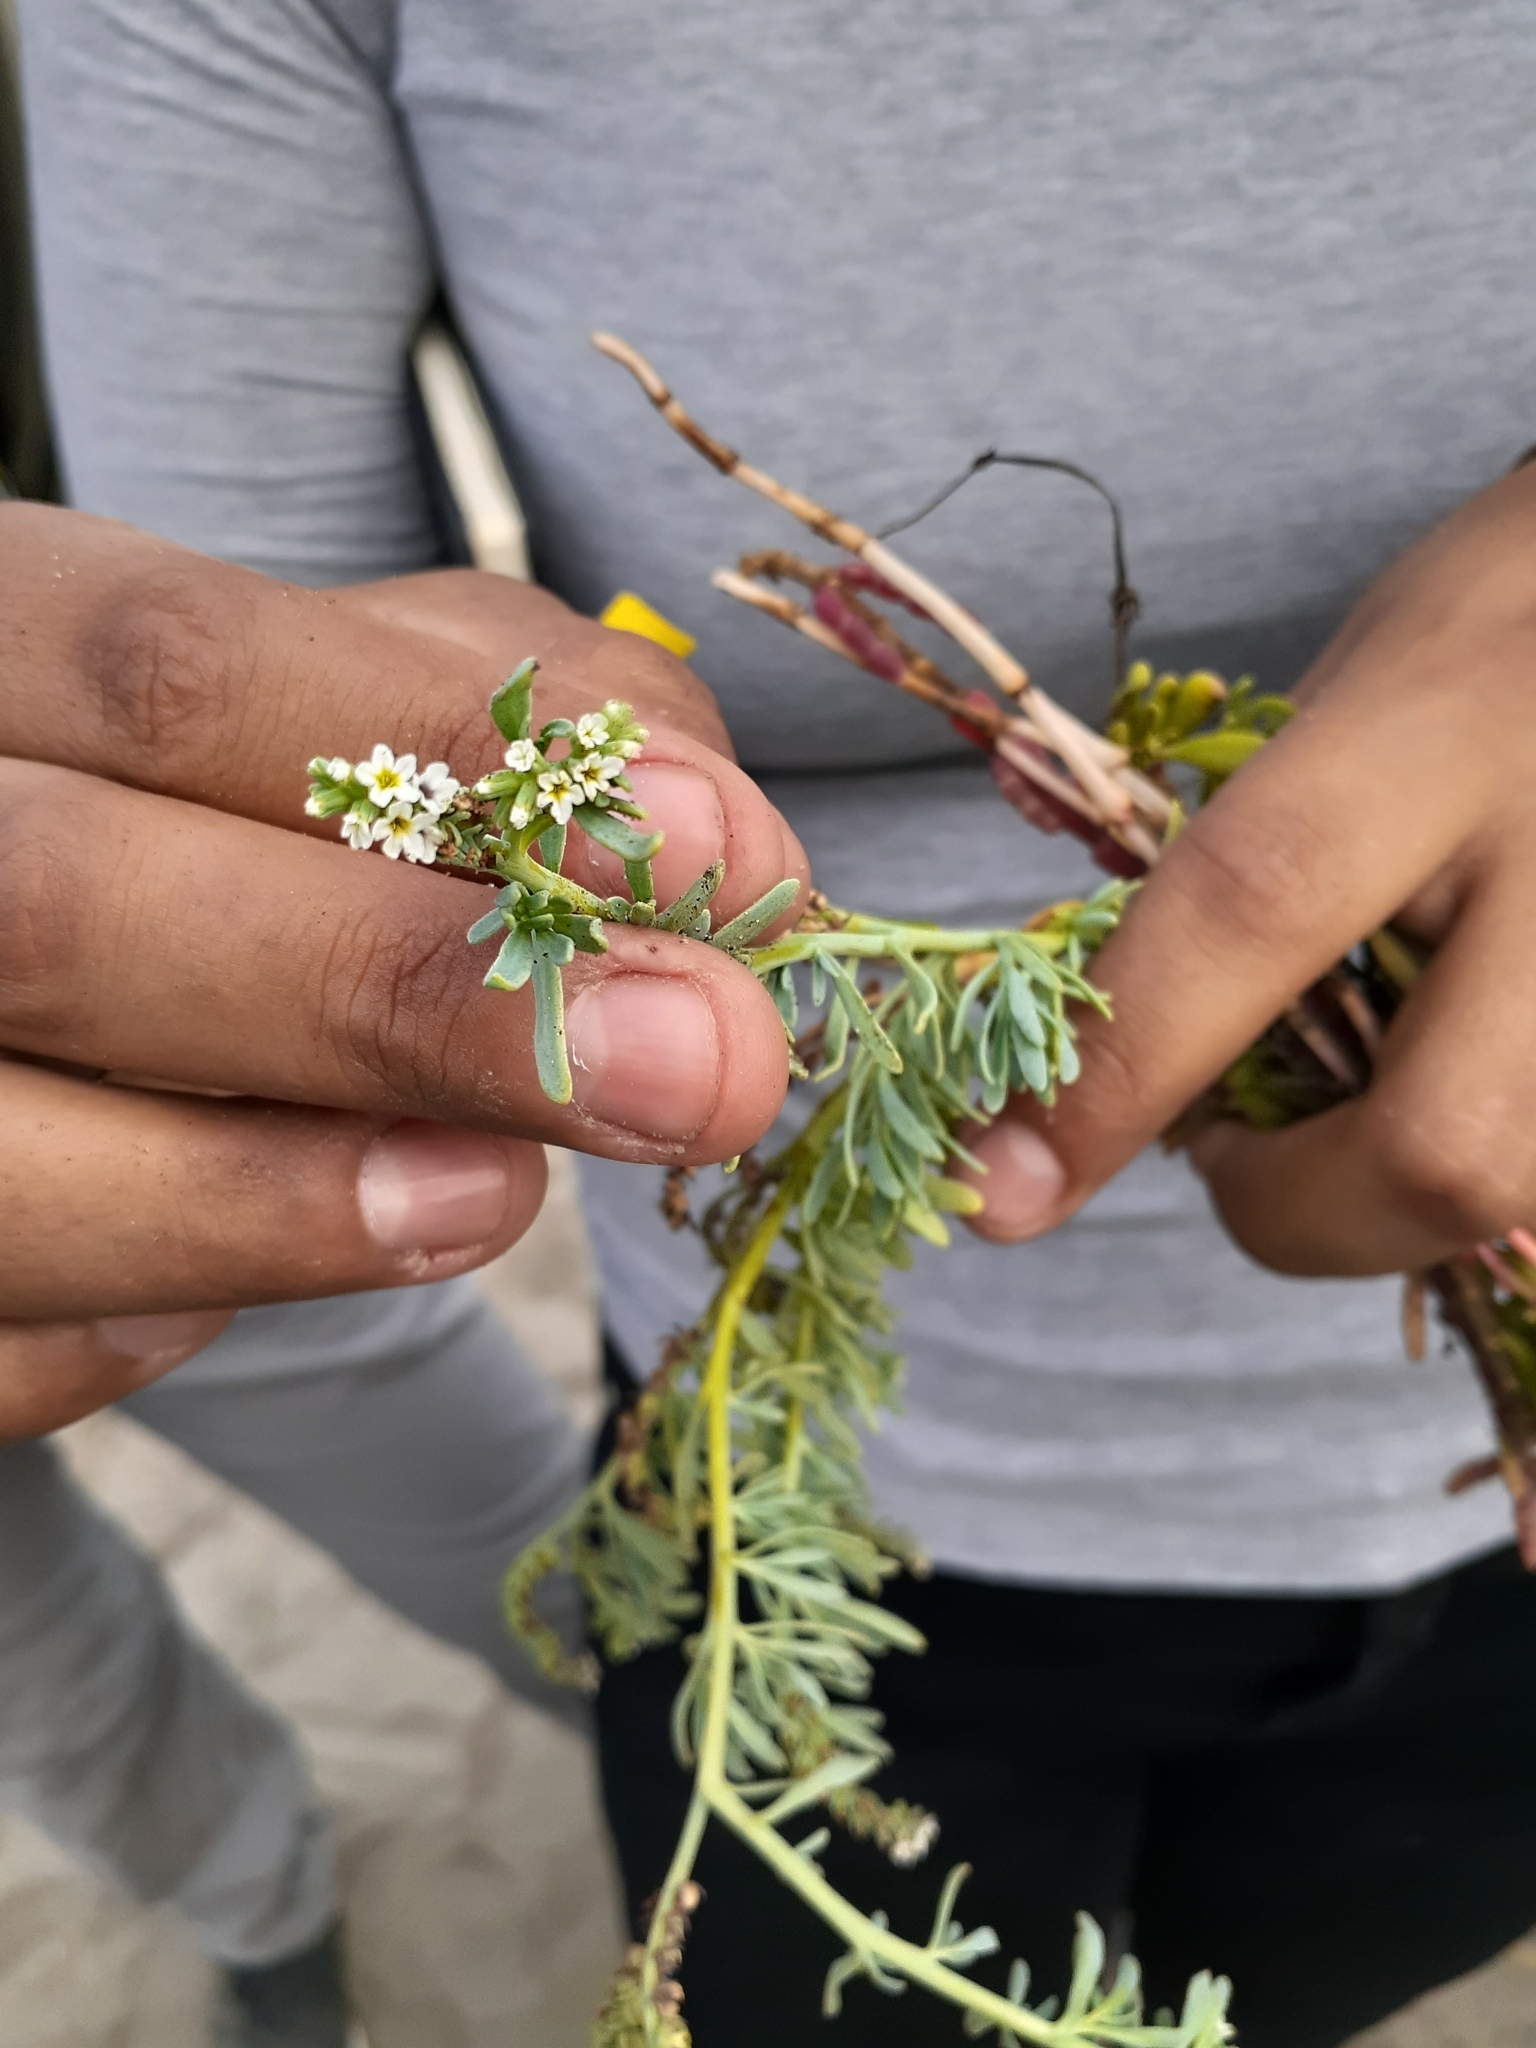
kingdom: Plantae
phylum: Tracheophyta
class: Magnoliopsida
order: Boraginales
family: Heliotropiaceae
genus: Heliotropium
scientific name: Heliotropium curassavicum
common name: Seaside heliotrope
